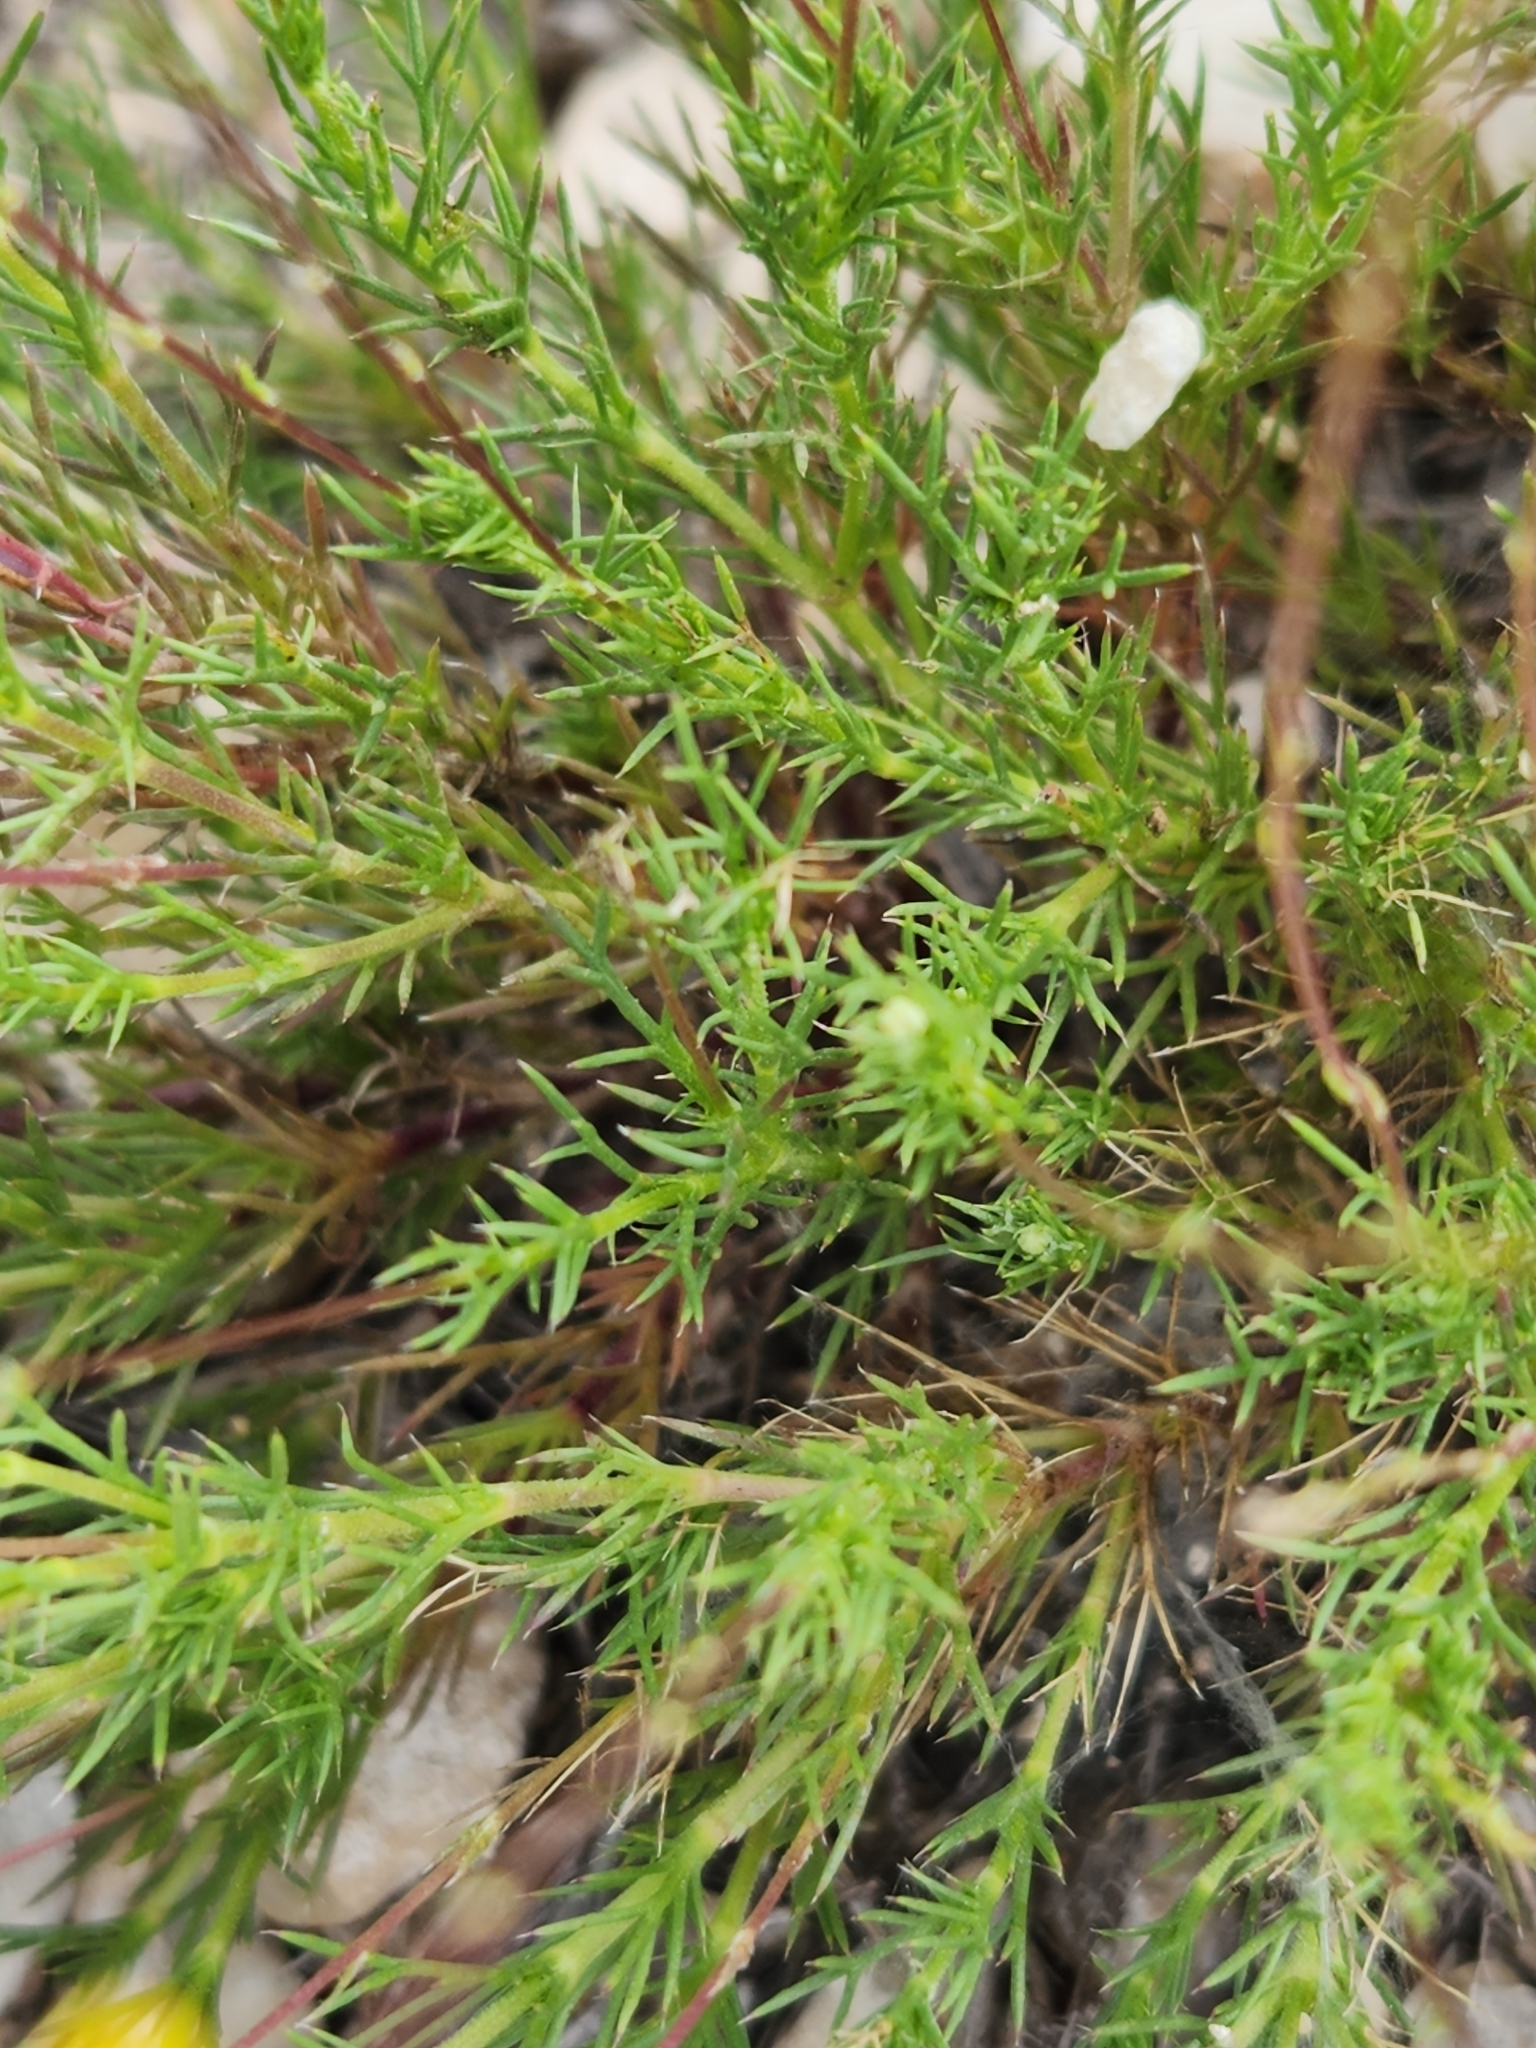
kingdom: Plantae
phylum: Tracheophyta
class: Magnoliopsida
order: Asterales
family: Asteraceae
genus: Thymophylla
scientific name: Thymophylla pentachaeta
